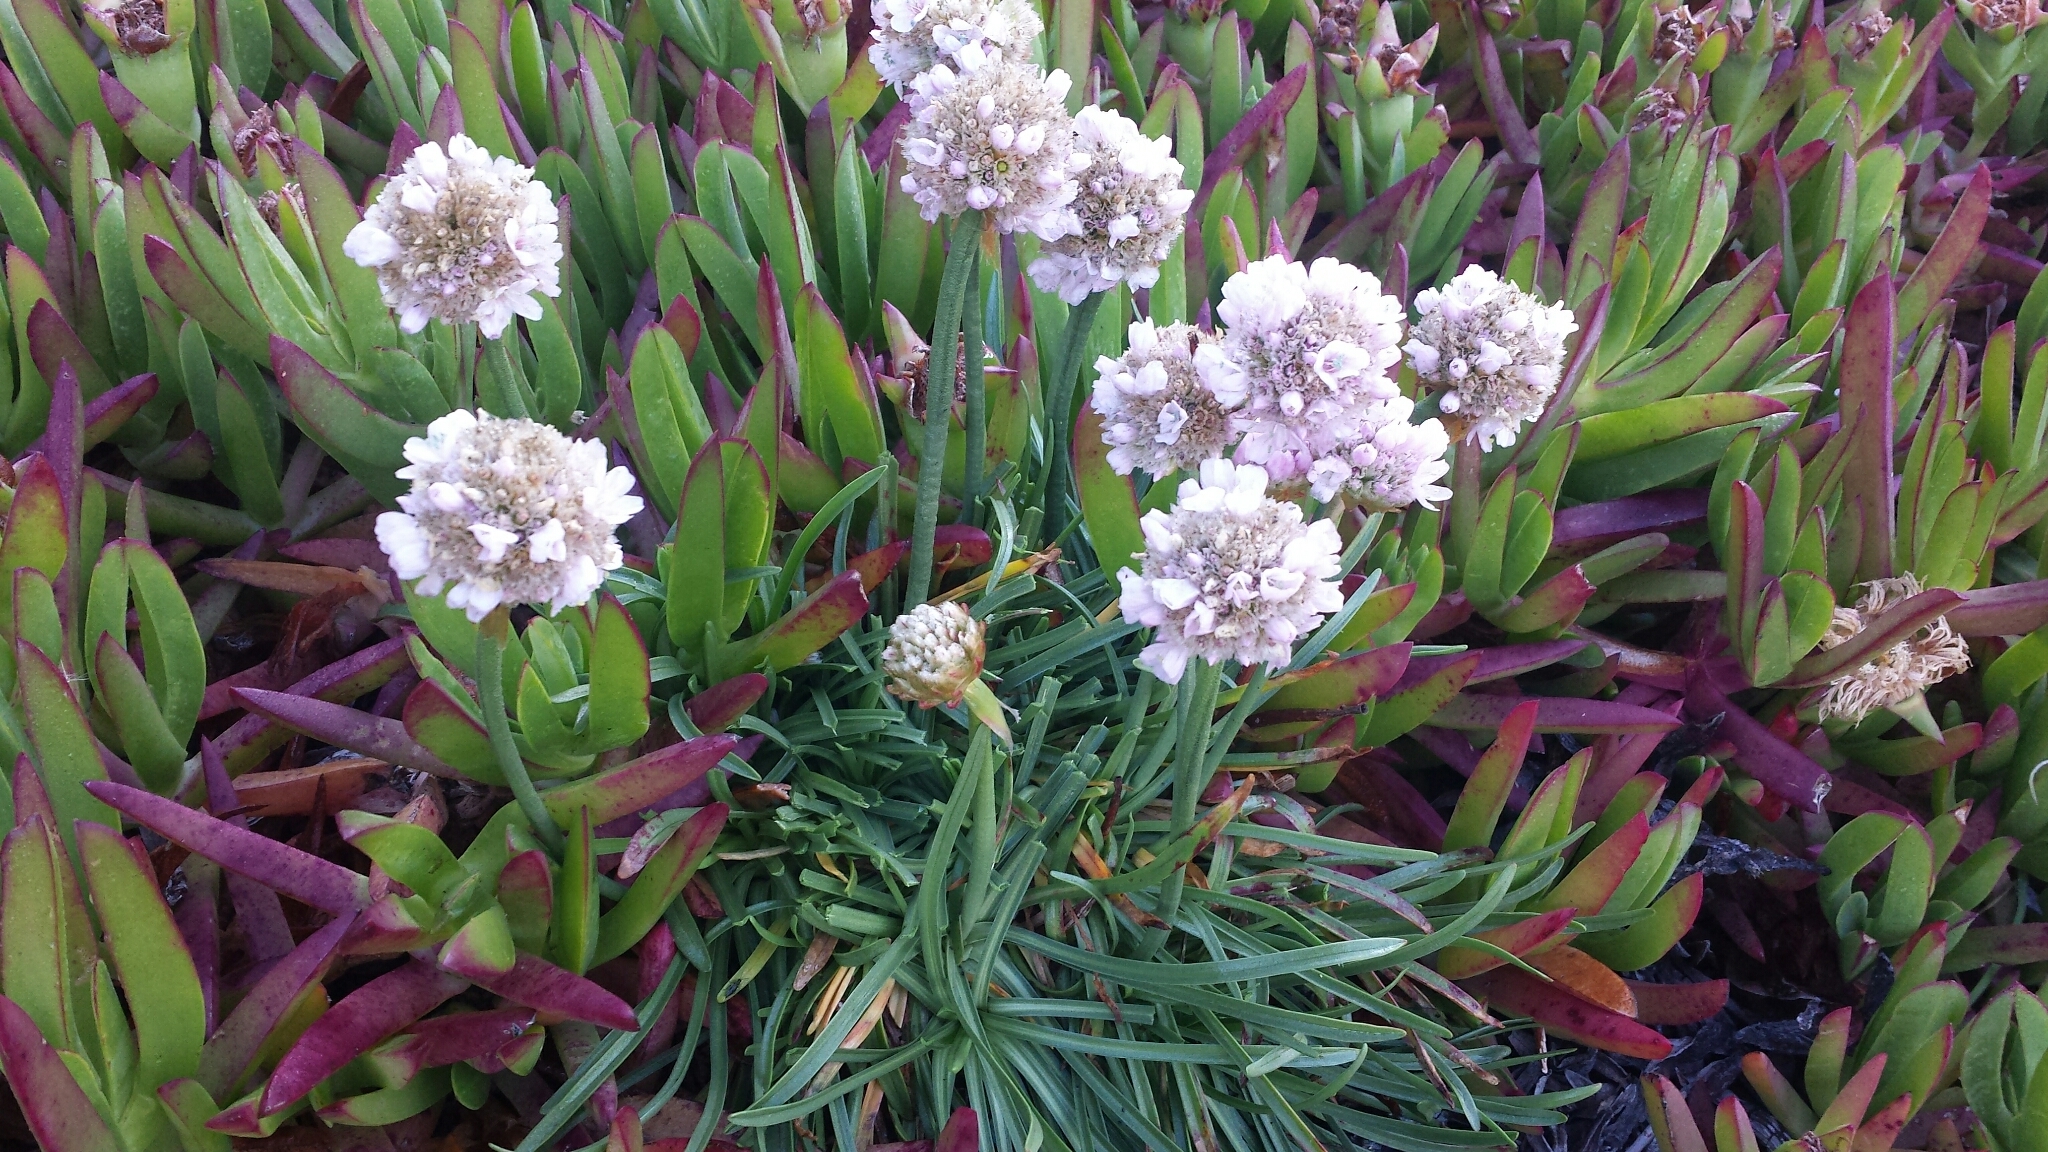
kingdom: Plantae
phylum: Tracheophyta
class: Magnoliopsida
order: Caryophyllales
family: Plumbaginaceae
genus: Armeria
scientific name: Armeria maritima
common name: Thrift
